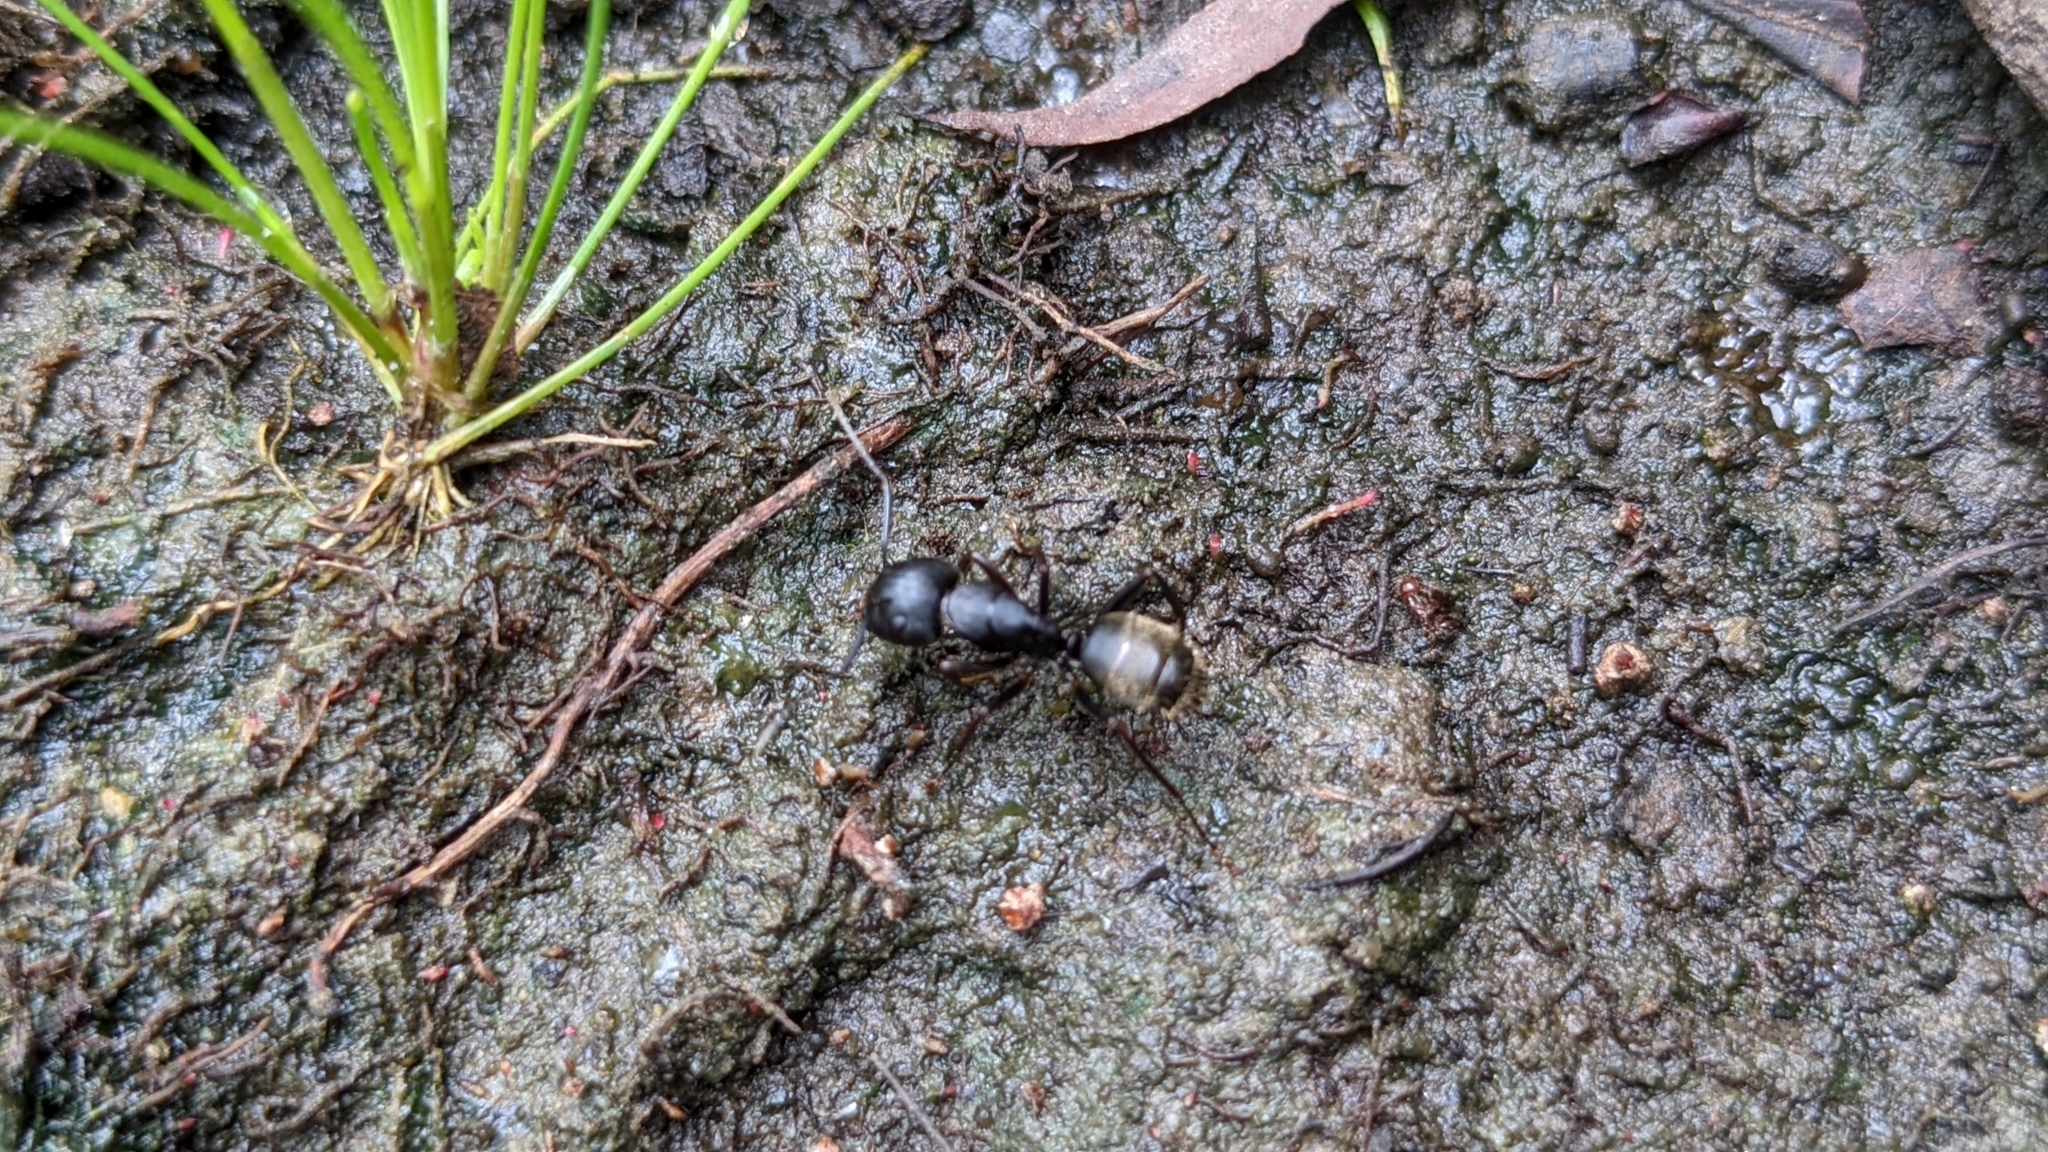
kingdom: Animalia
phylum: Arthropoda
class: Insecta
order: Hymenoptera
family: Formicidae
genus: Camponotus
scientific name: Camponotus pennsylvanicus
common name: Black carpenter ant
